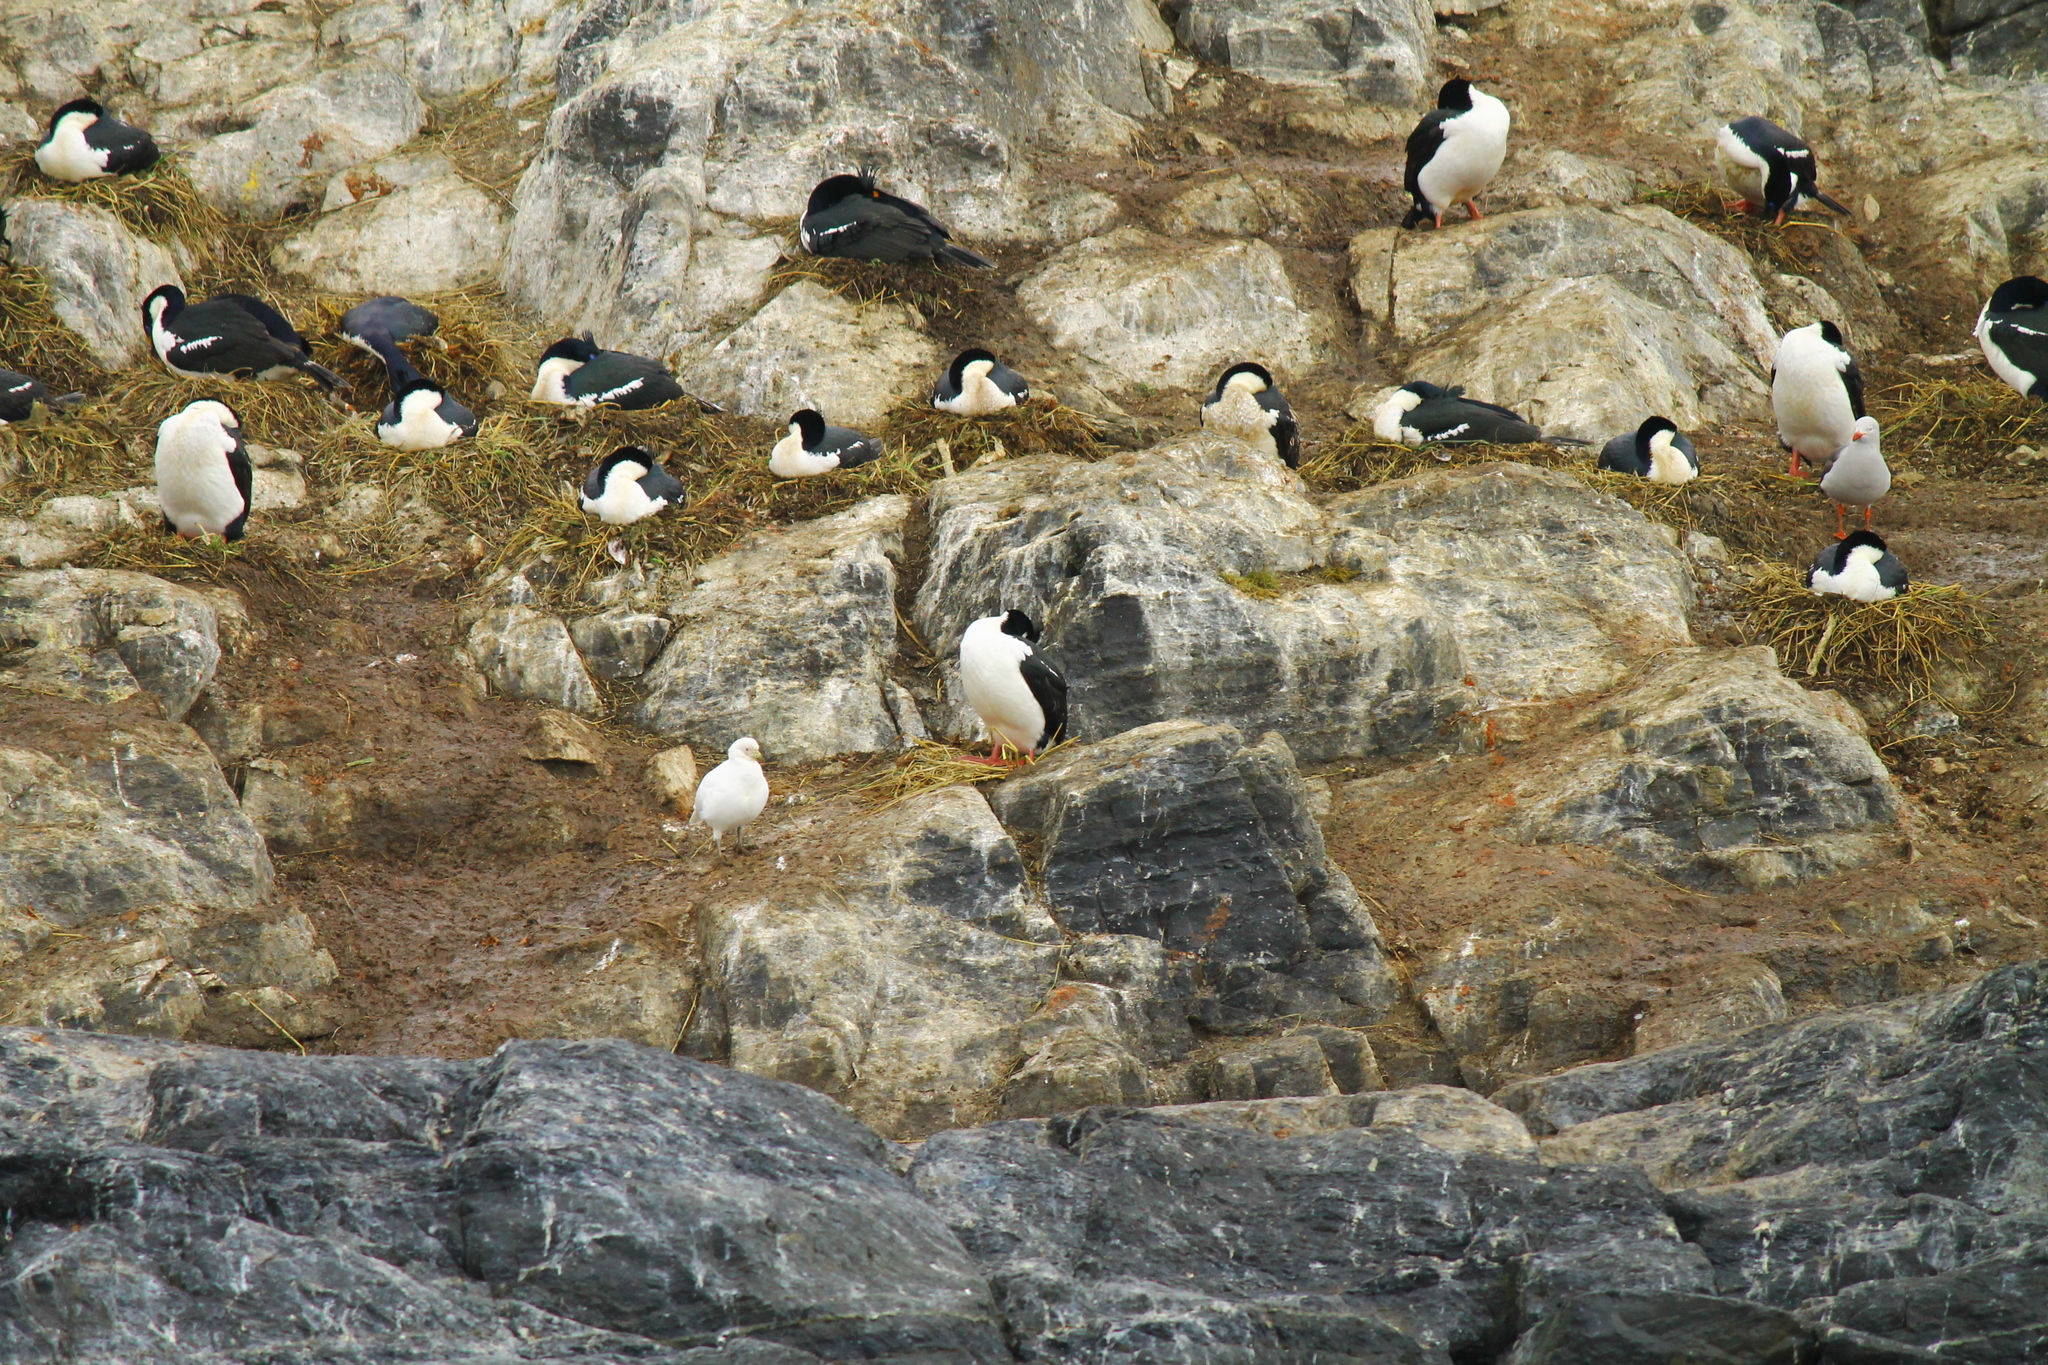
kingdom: Animalia
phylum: Chordata
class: Aves
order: Suliformes
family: Phalacrocoracidae
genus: Leucocarbo
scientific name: Leucocarbo atriceps
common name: Imperial shag
